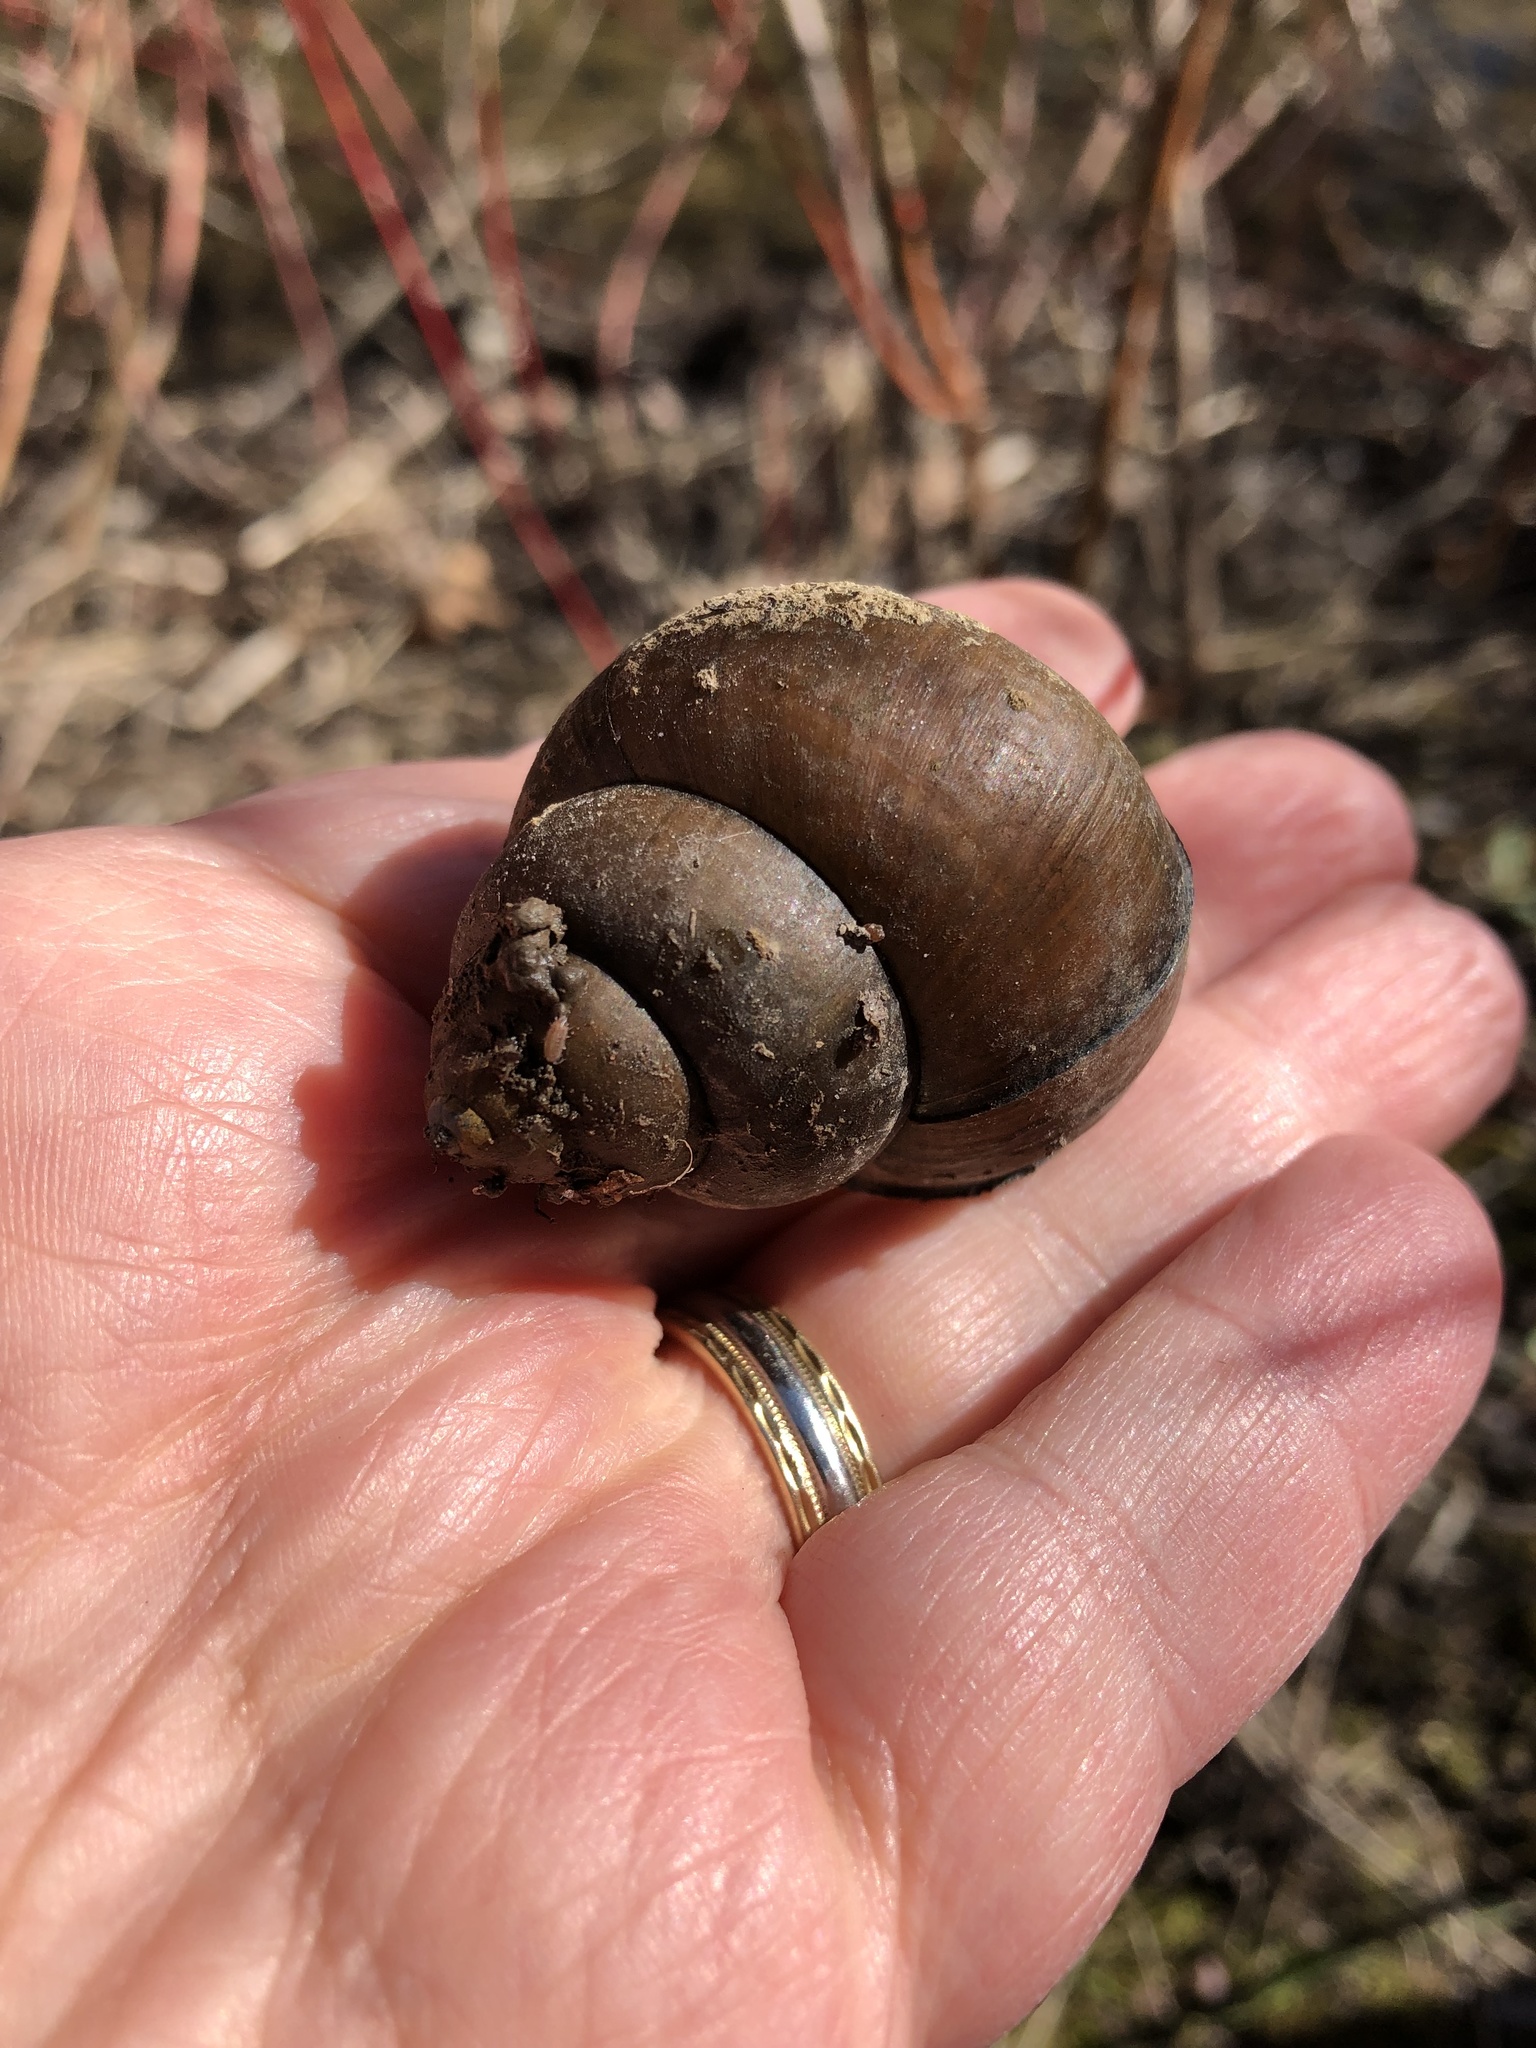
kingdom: Animalia
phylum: Mollusca
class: Gastropoda
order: Architaenioglossa
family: Viviparidae
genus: Cipangopaludina
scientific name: Cipangopaludina chinensis
